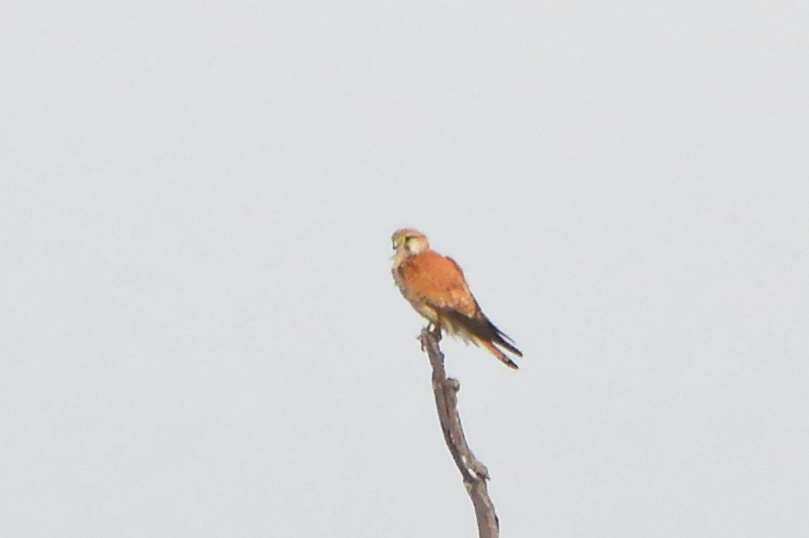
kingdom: Animalia
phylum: Chordata
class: Aves
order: Falconiformes
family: Falconidae
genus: Falco
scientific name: Falco cenchroides
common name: Nankeen kestrel
